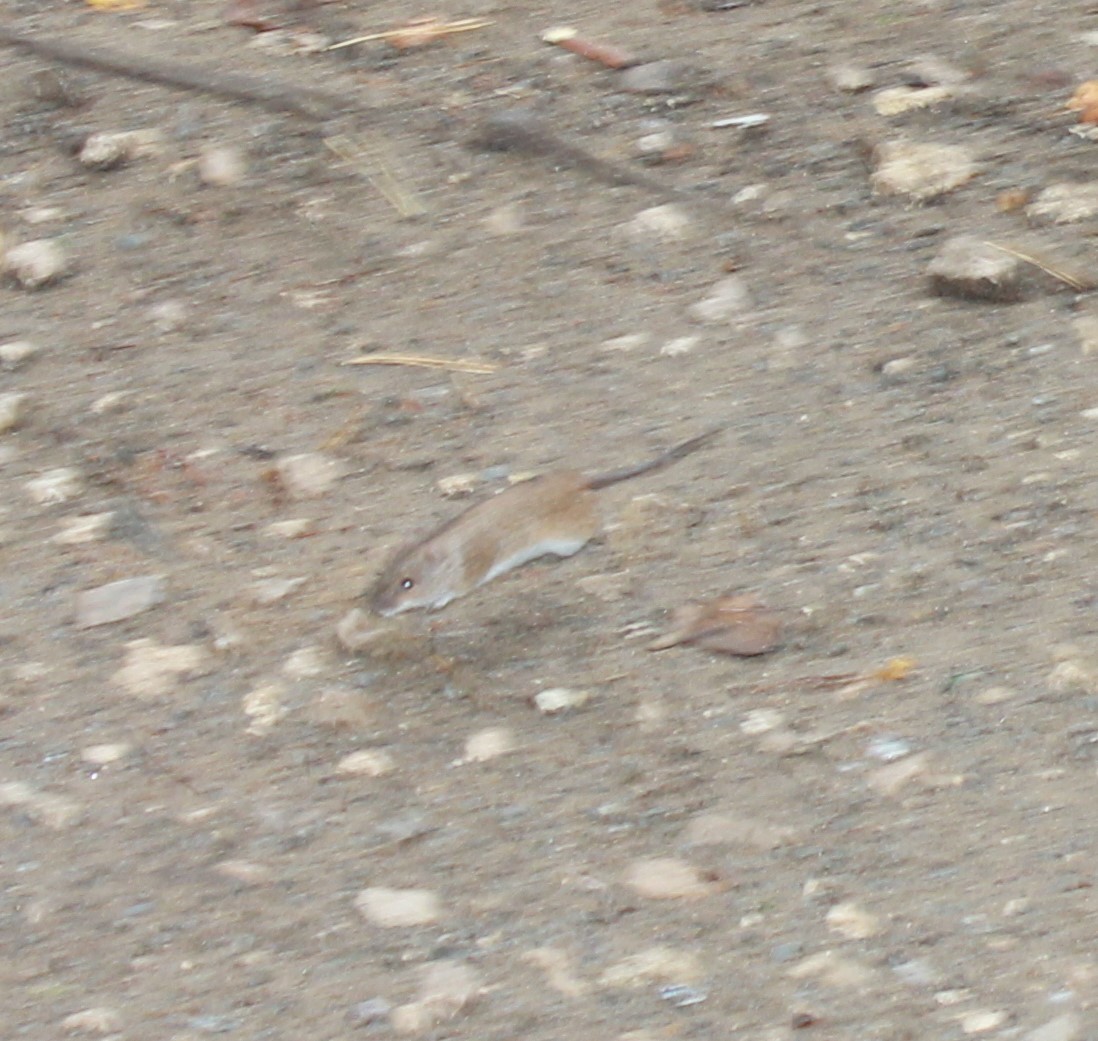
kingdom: Animalia
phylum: Chordata
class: Mammalia
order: Rodentia
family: Muridae
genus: Apodemus
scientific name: Apodemus agrarius
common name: Striped field mouse
